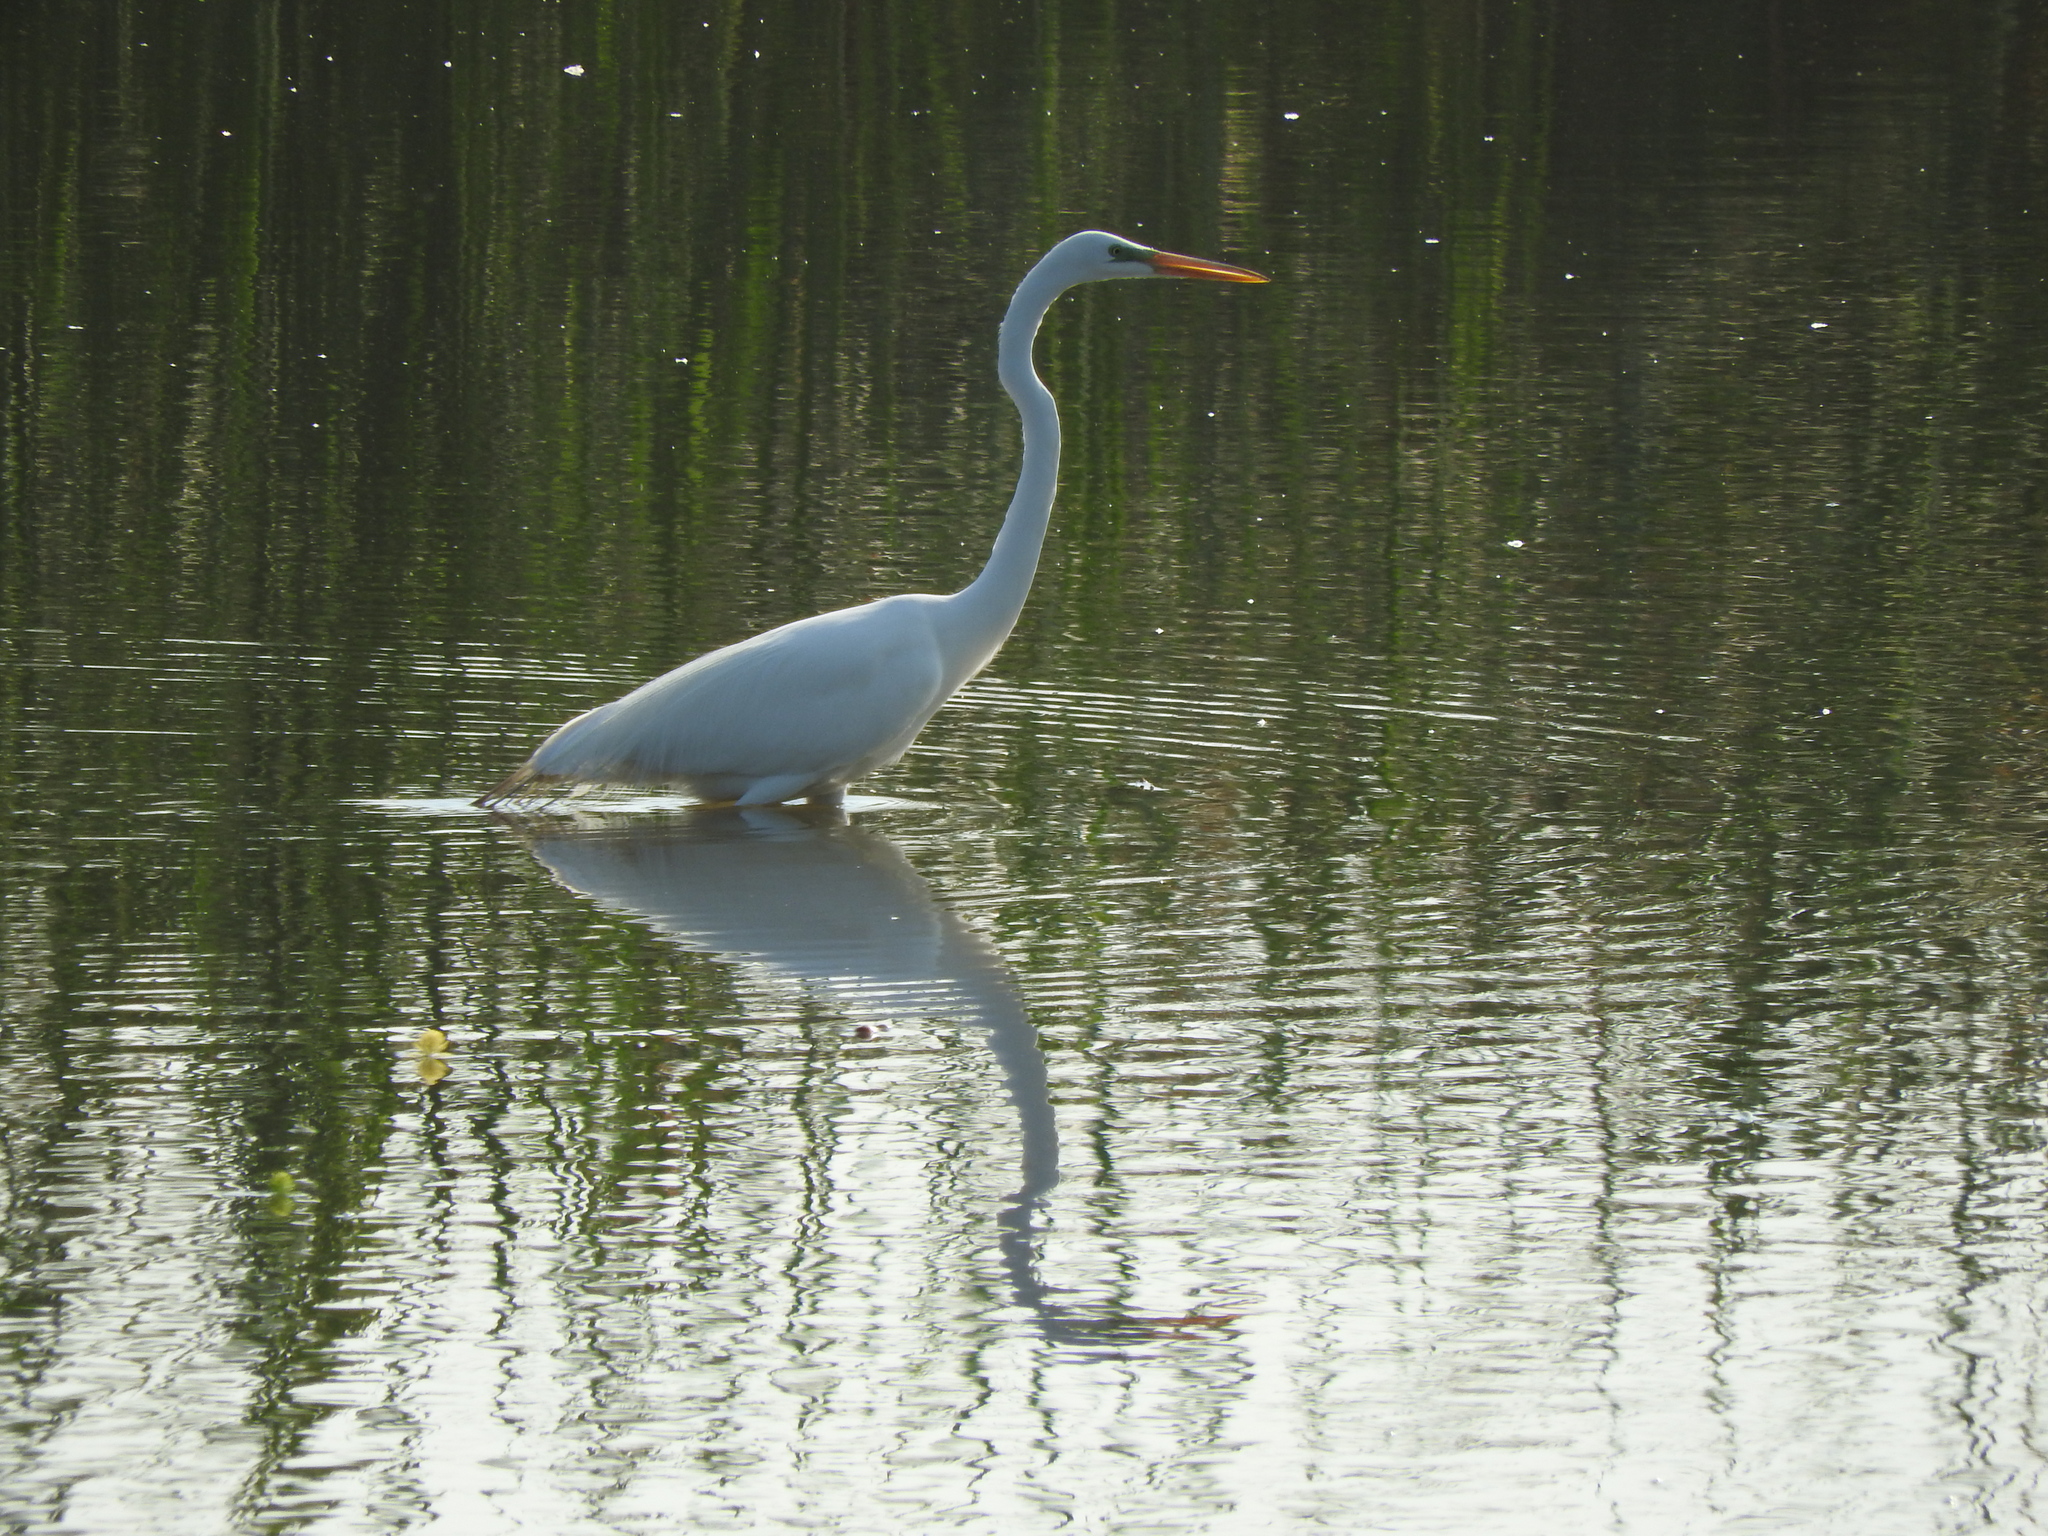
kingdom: Animalia
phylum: Chordata
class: Aves
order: Pelecaniformes
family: Ardeidae
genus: Ardea
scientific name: Ardea alba
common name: Great egret
